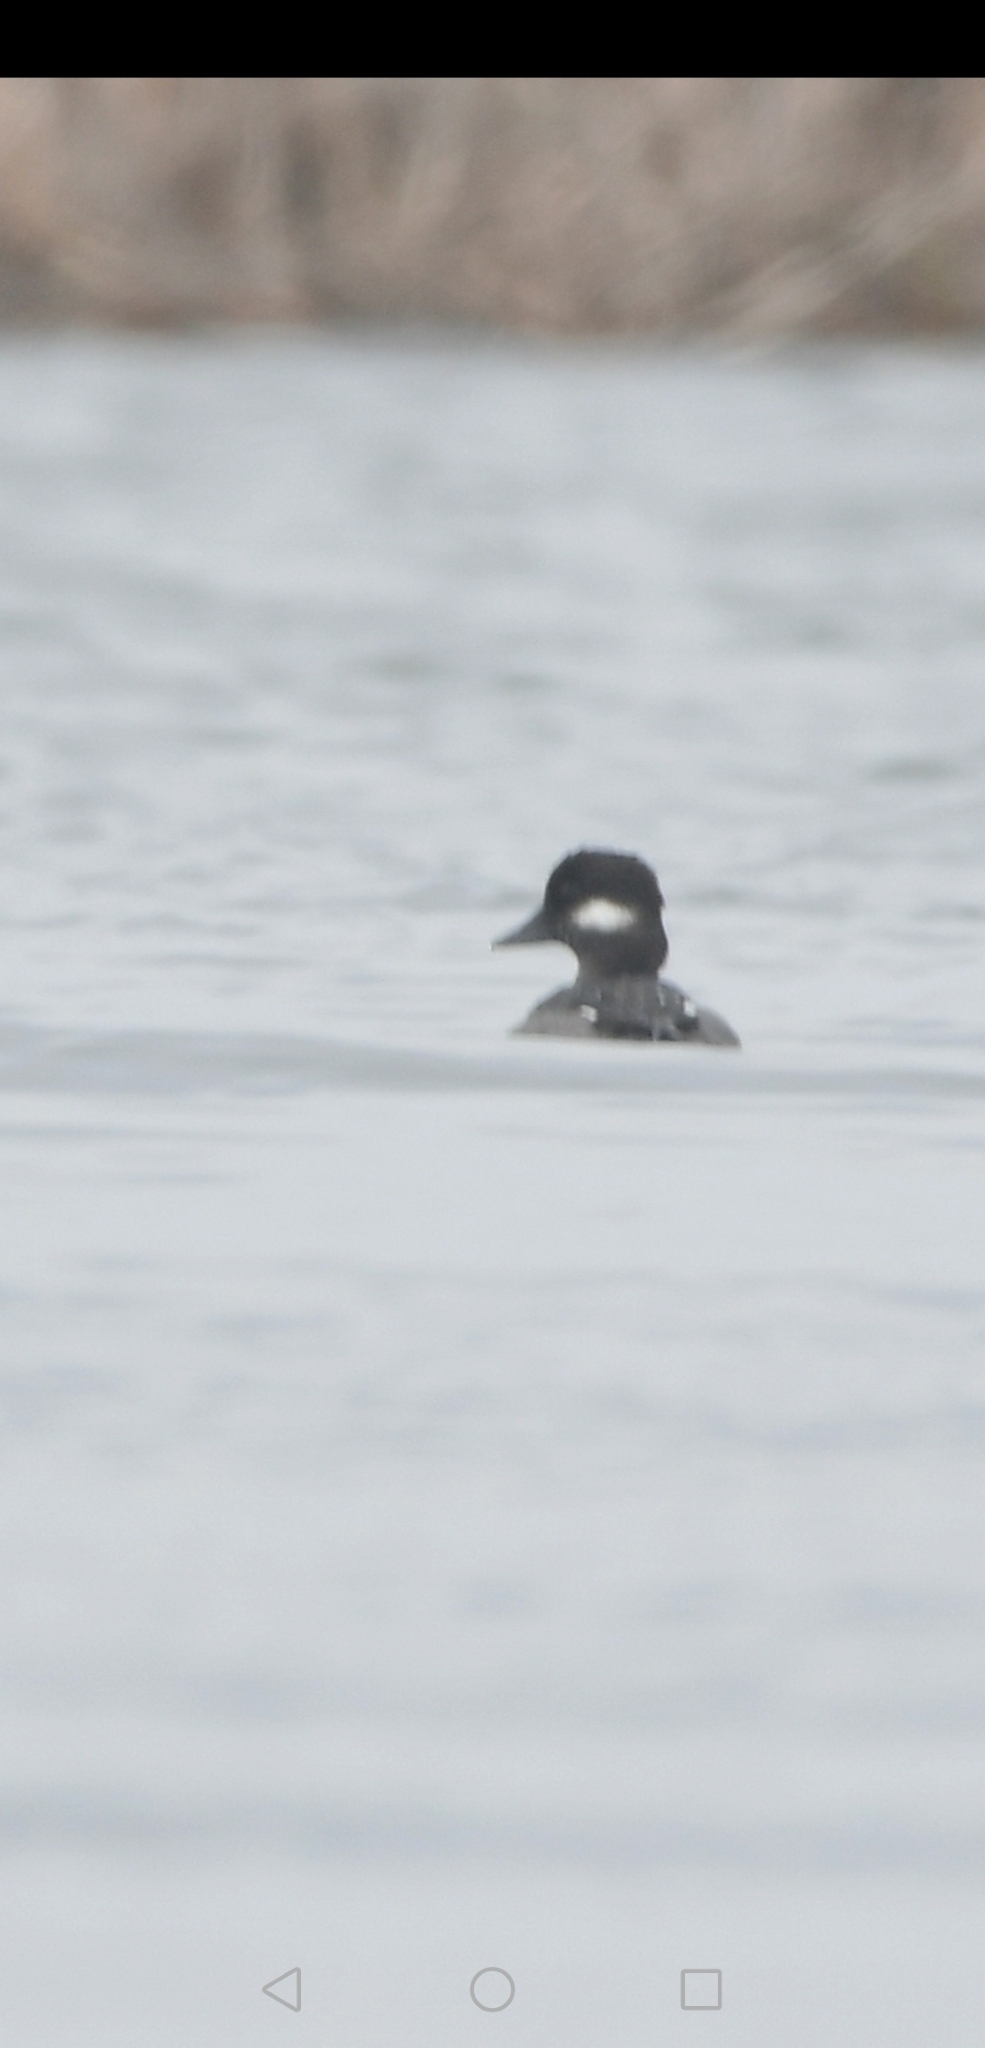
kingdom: Animalia
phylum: Chordata
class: Aves
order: Anseriformes
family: Anatidae
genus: Bucephala
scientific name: Bucephala albeola
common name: Bufflehead
